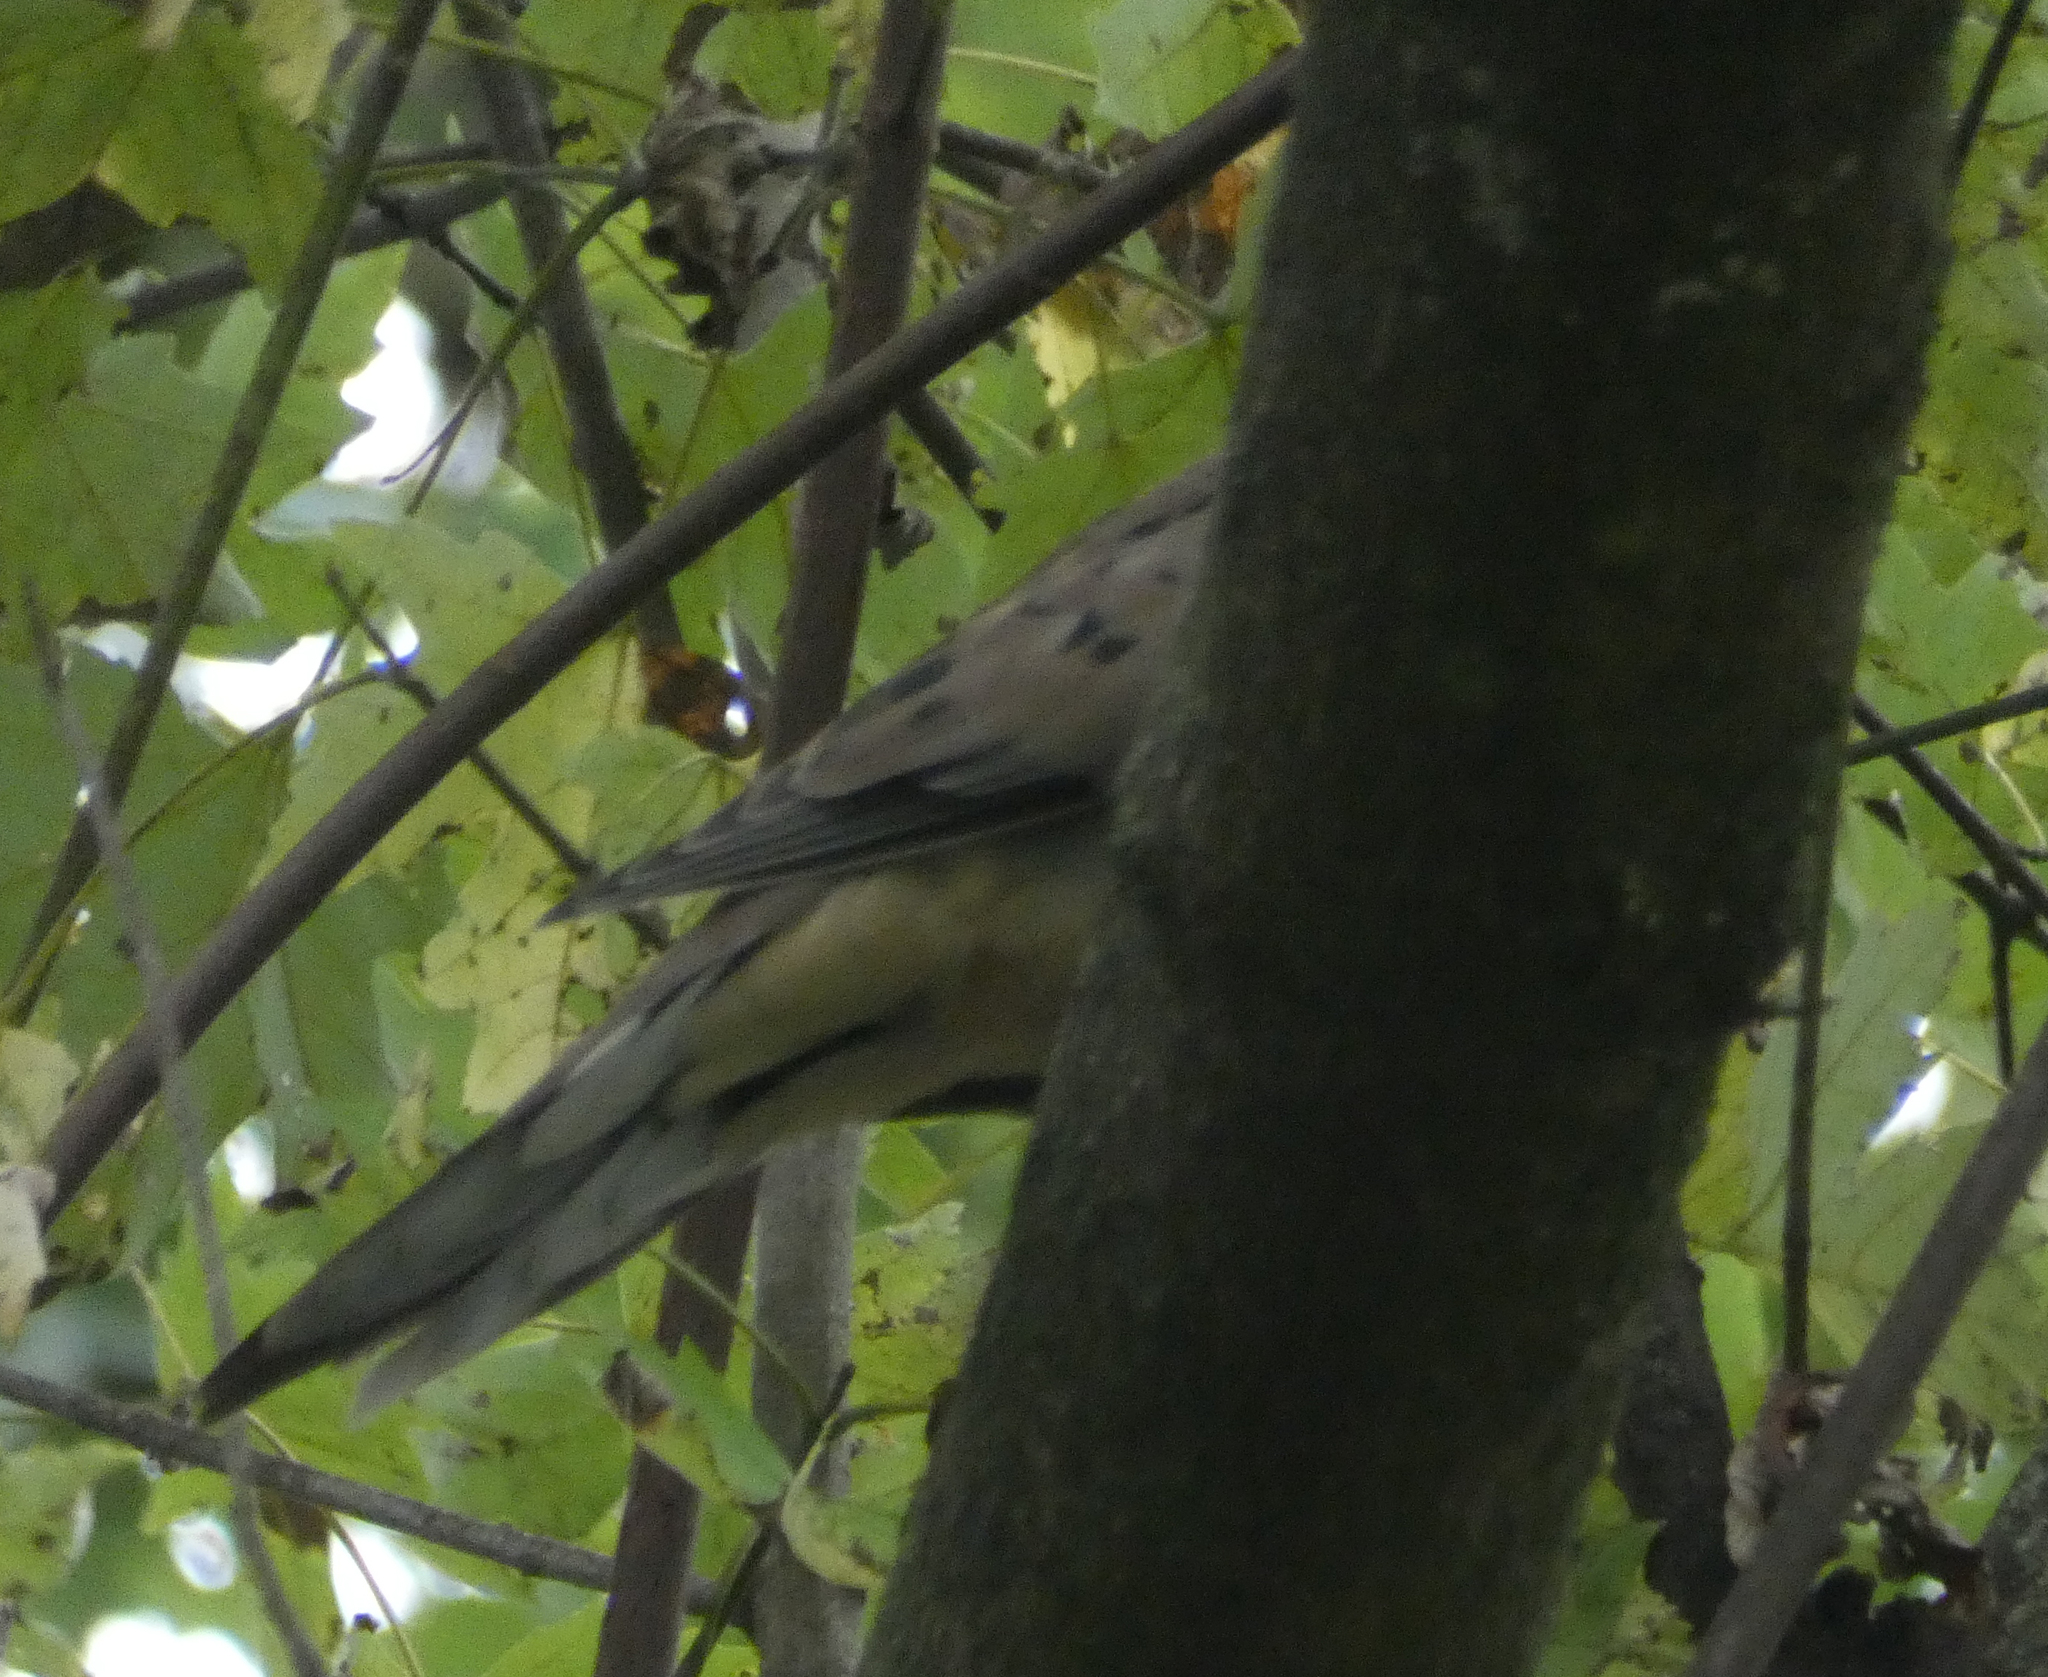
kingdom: Animalia
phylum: Chordata
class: Aves
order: Columbiformes
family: Columbidae
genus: Zenaida
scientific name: Zenaida macroura
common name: Mourning dove
